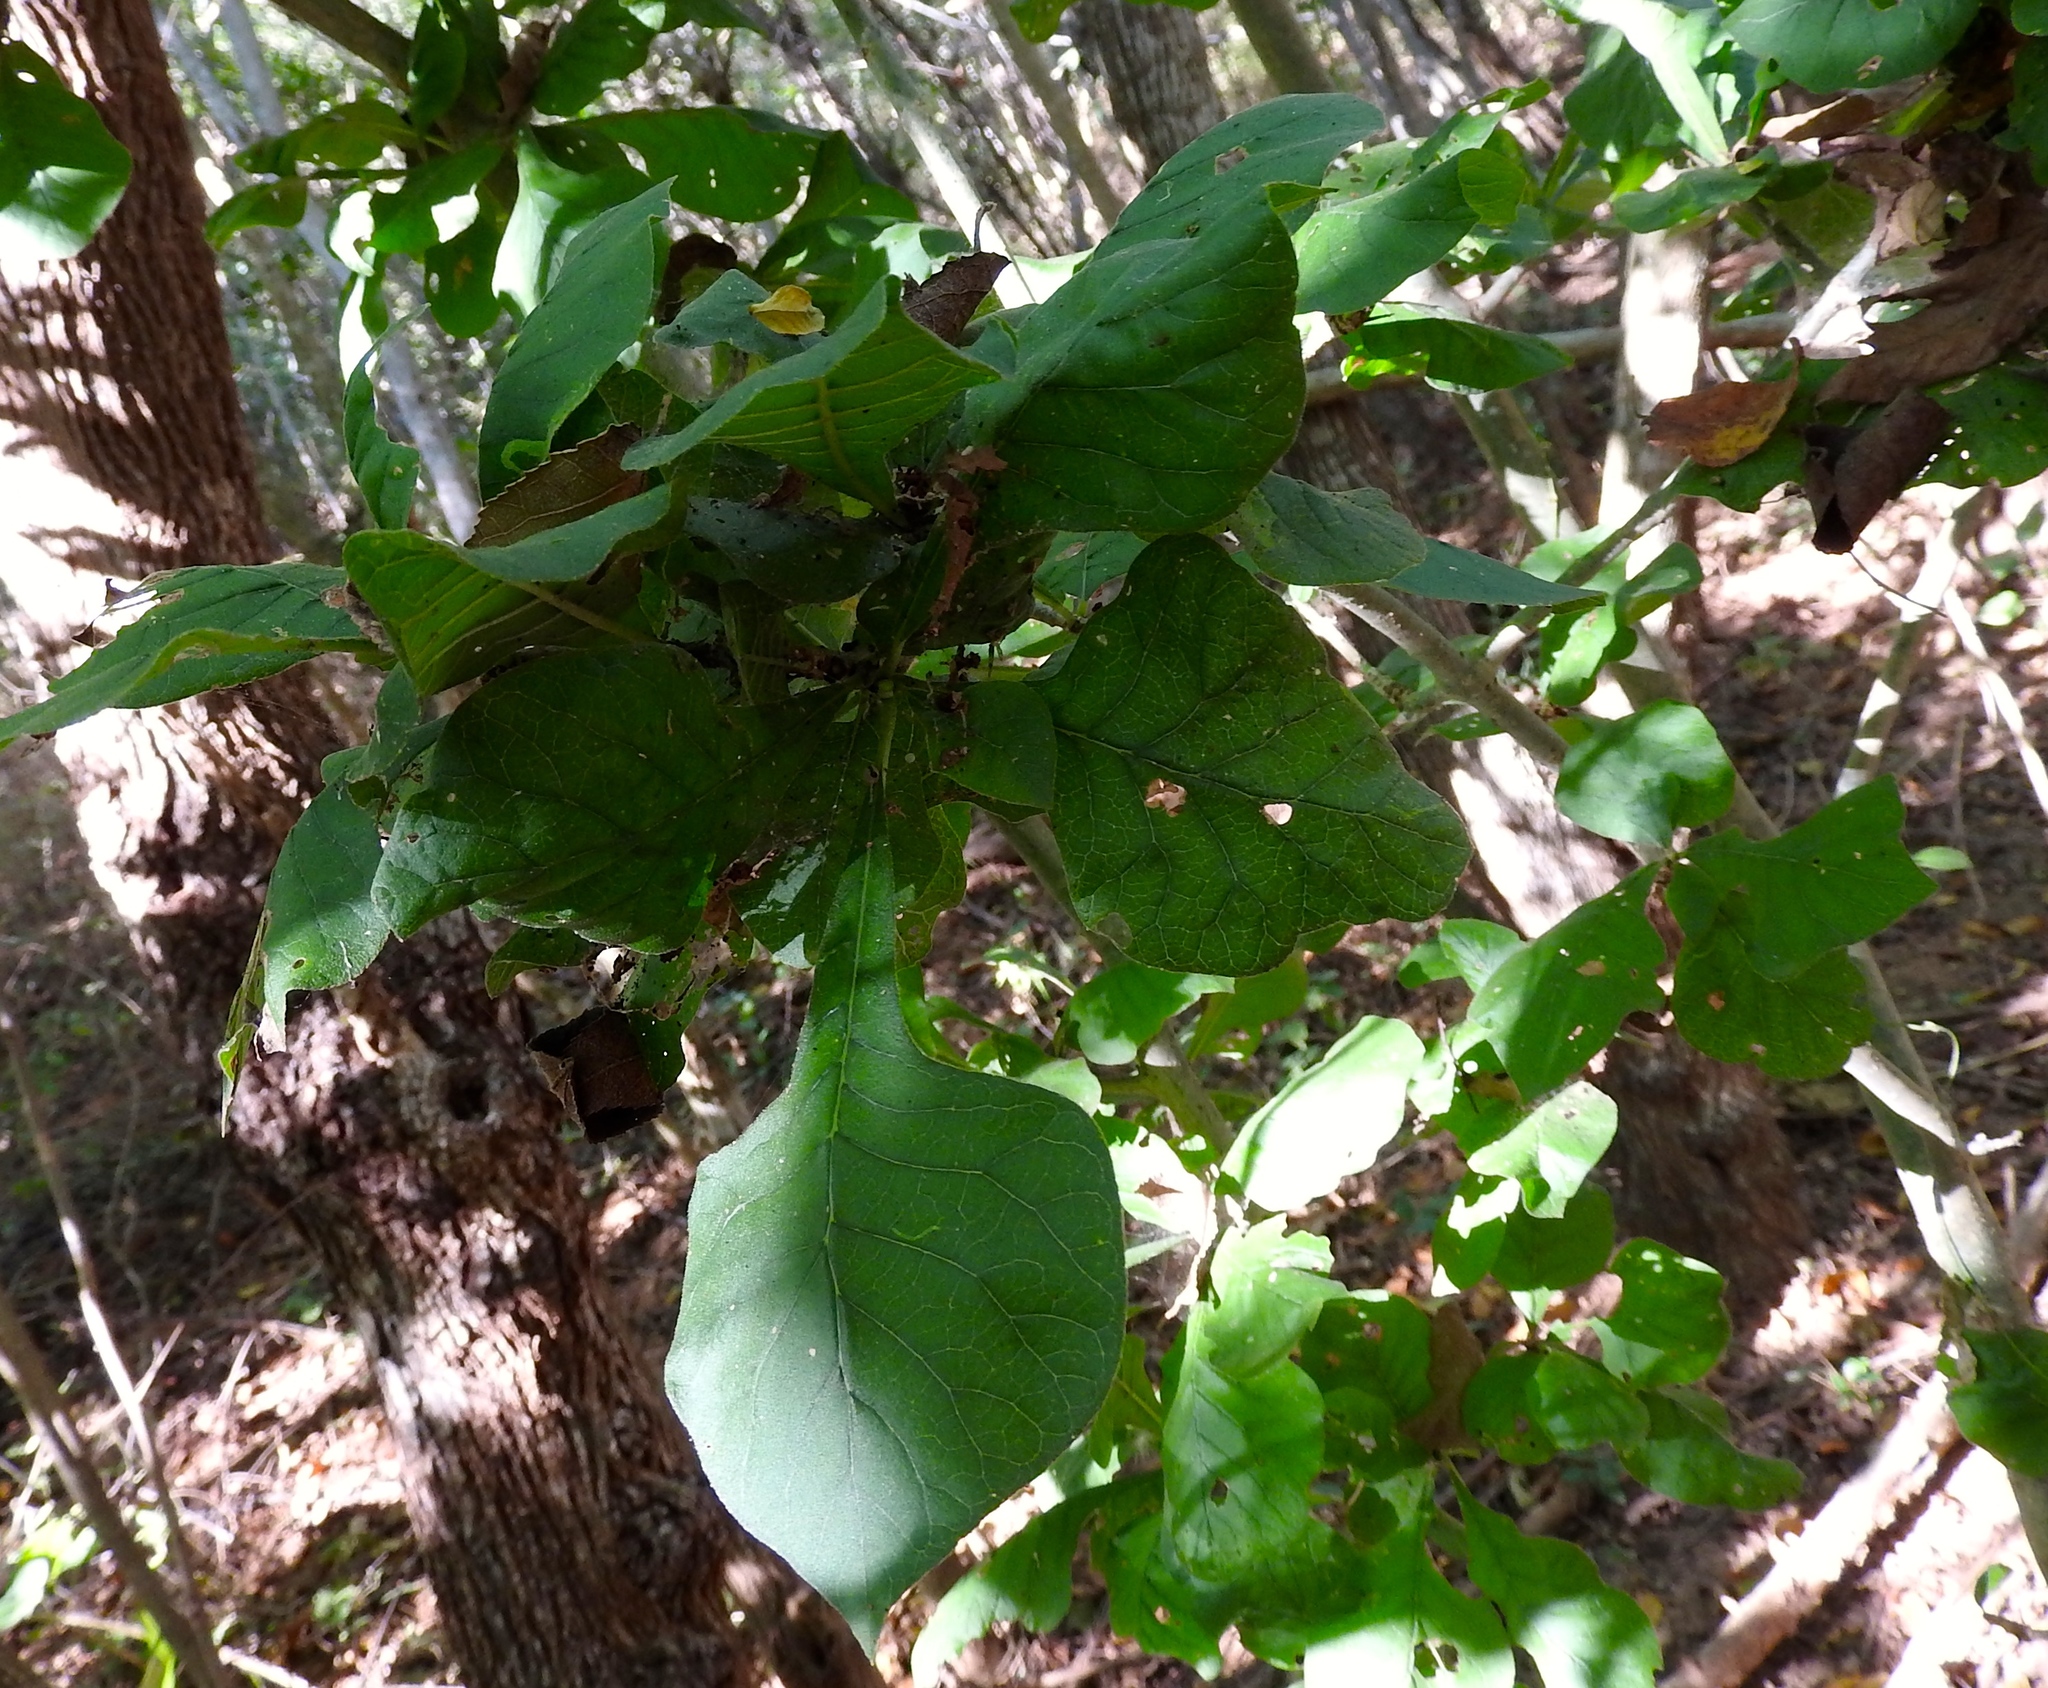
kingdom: Plantae
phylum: Tracheophyta
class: Magnoliopsida
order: Gentianales
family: Rubiaceae
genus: Randia
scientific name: Randia echinocarpa
